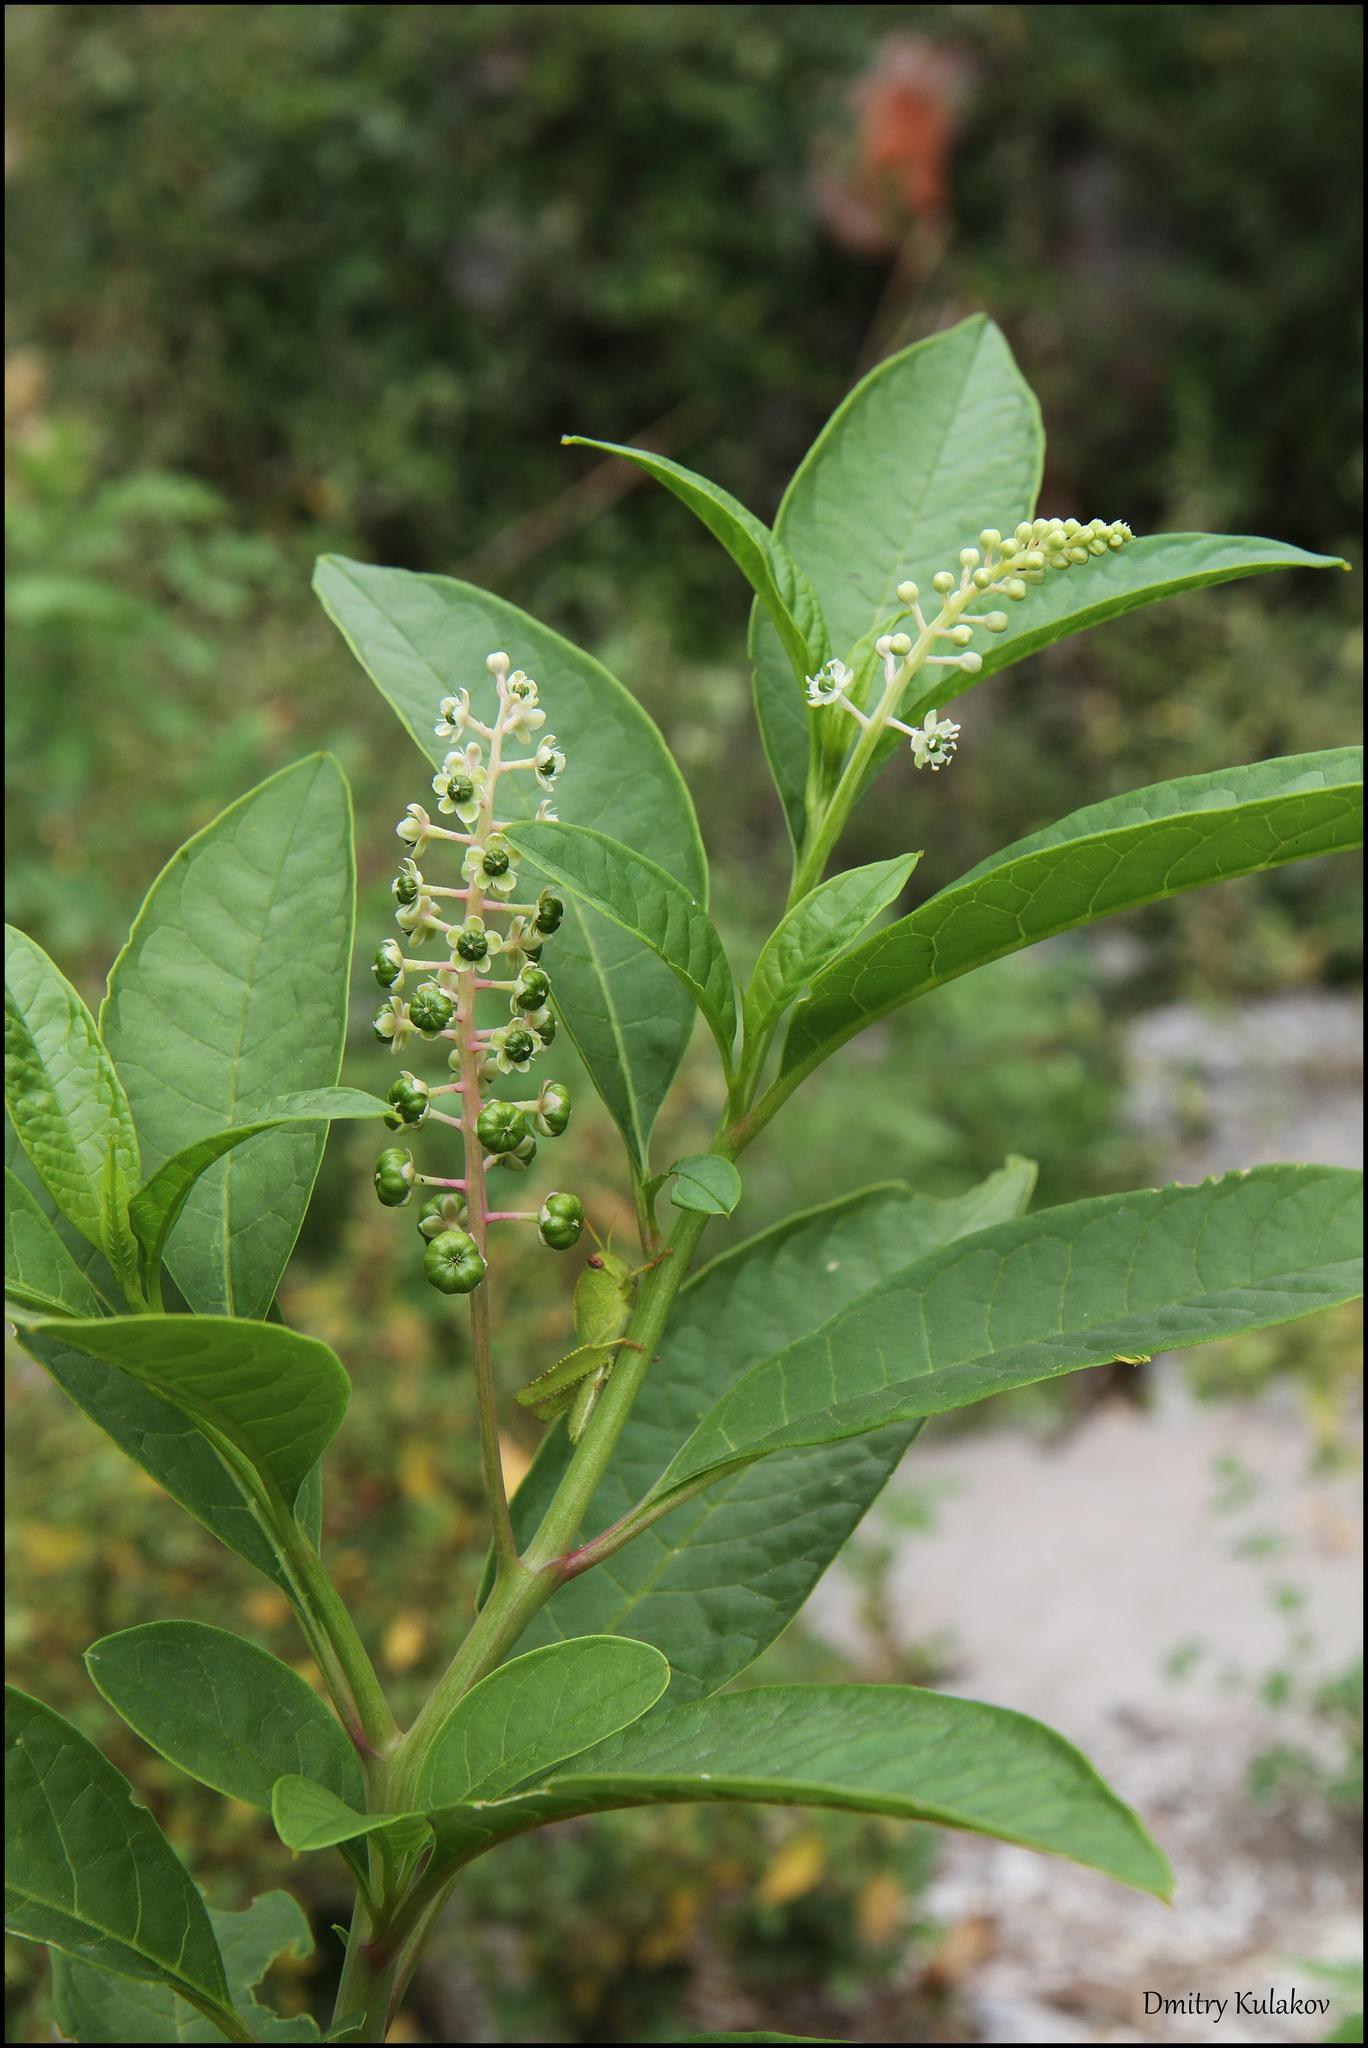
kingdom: Plantae
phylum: Tracheophyta
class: Magnoliopsida
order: Caryophyllales
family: Phytolaccaceae
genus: Phytolacca
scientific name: Phytolacca americana
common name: American pokeweed
